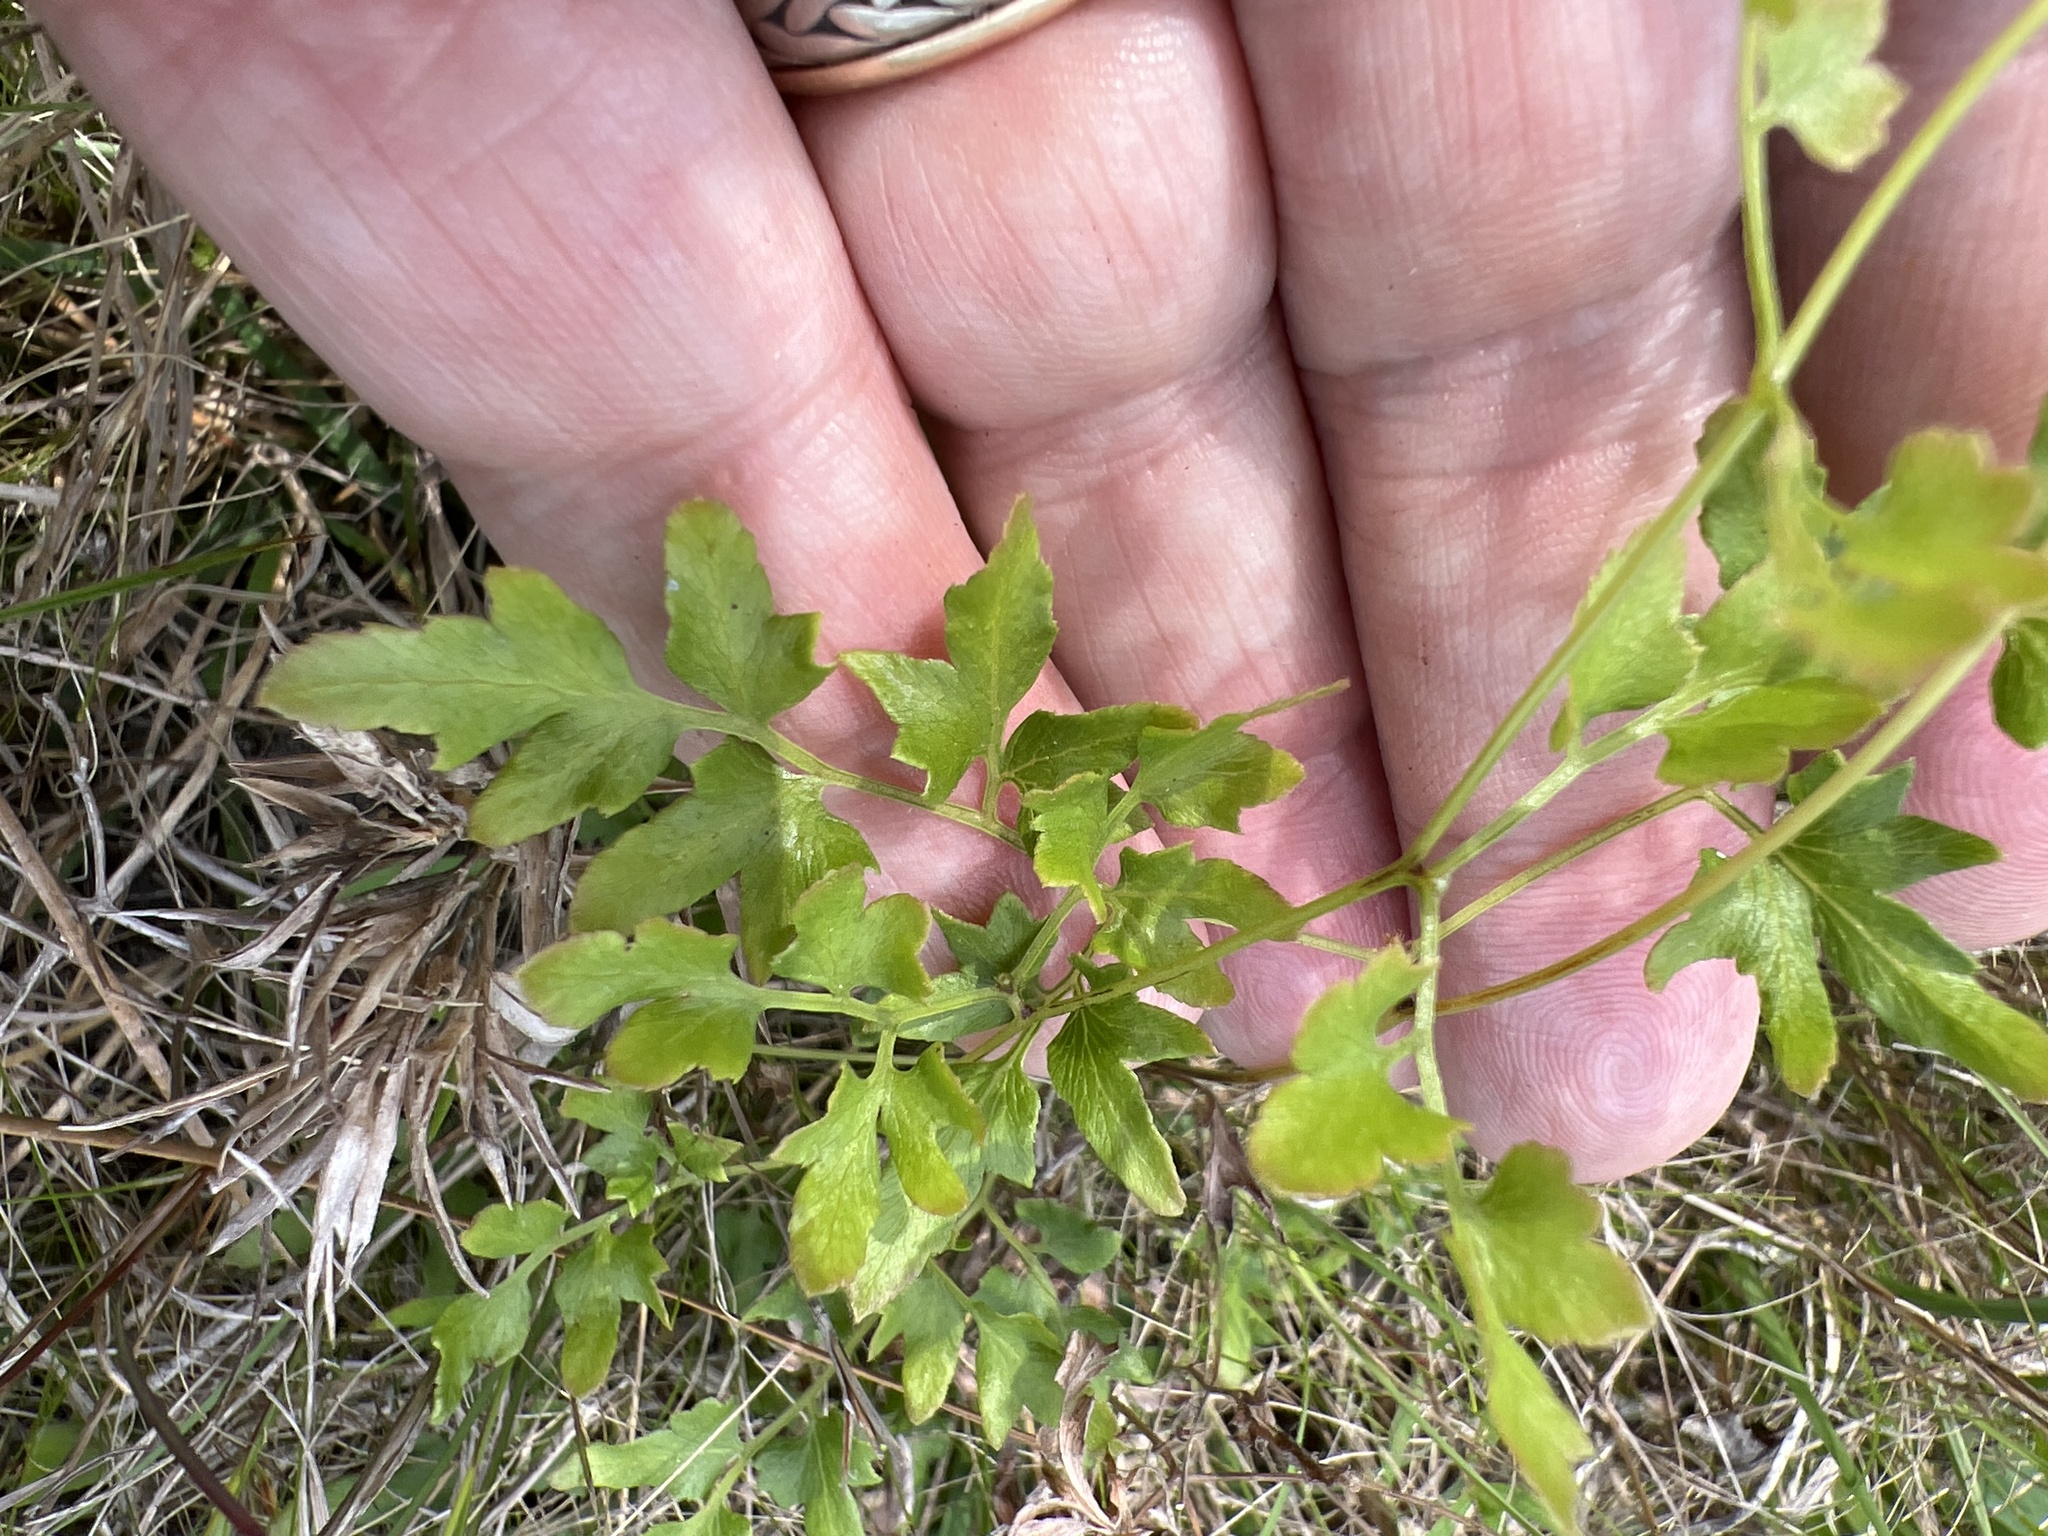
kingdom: Plantae
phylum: Tracheophyta
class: Polypodiopsida
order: Schizaeales
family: Lygodiaceae
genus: Lygodium
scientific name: Lygodium japonicum
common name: Japanese climbing fern
